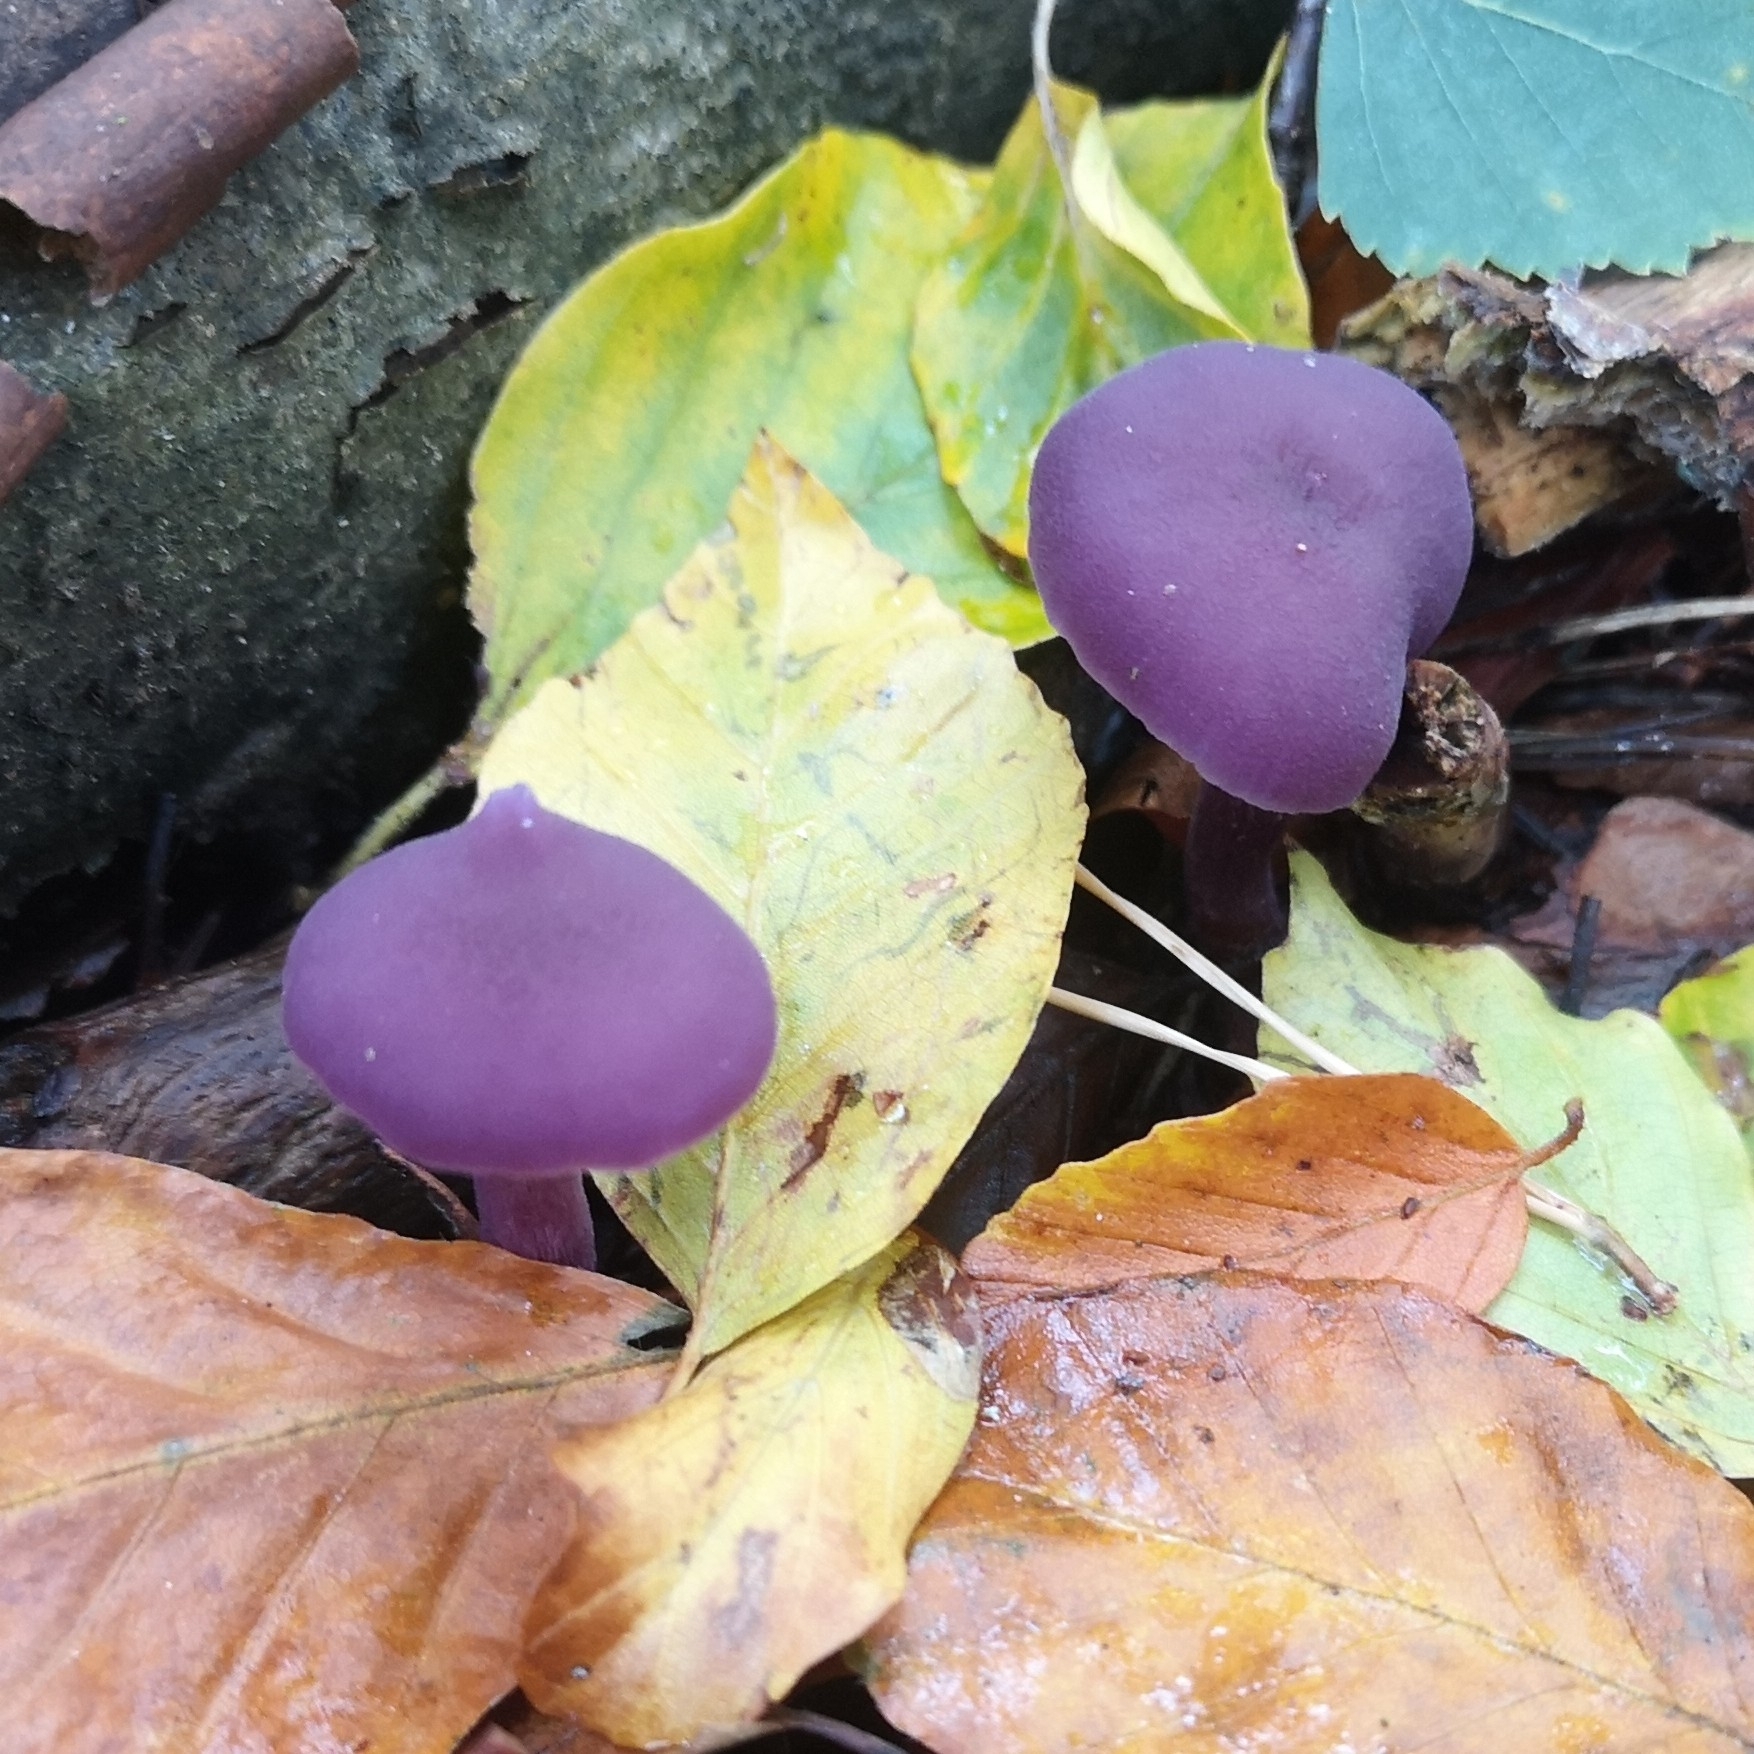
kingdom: Fungi
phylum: Basidiomycota
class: Agaricomycetes
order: Agaricales
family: Hydnangiaceae
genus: Laccaria
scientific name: Laccaria amethystina
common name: Amethyst deceiver
